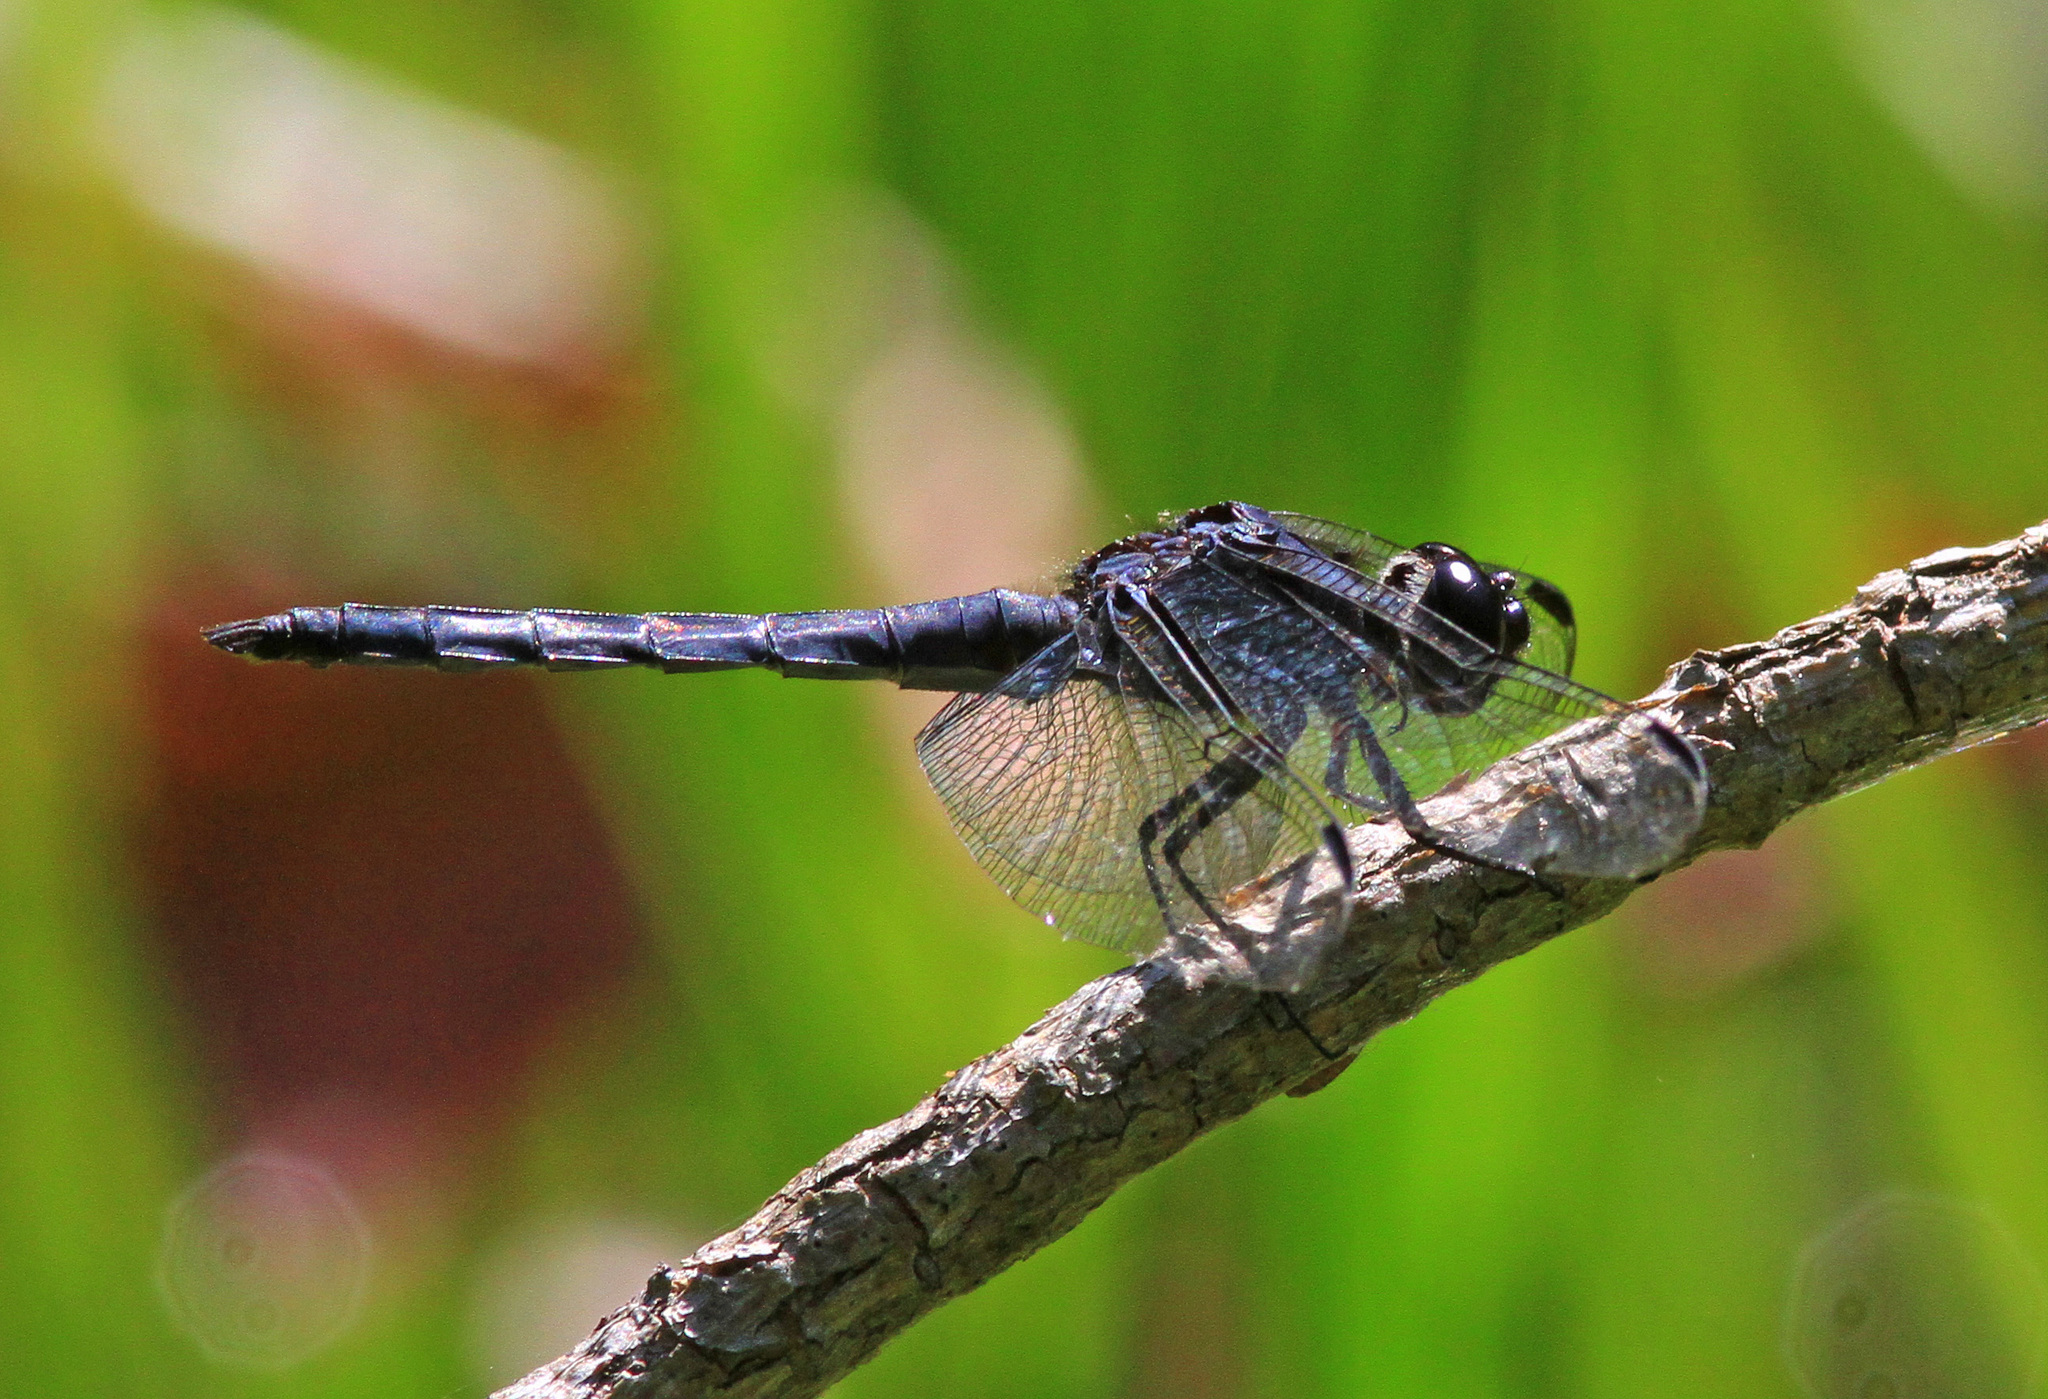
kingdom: Animalia
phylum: Arthropoda
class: Insecta
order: Odonata
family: Libellulidae
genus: Libellula
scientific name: Libellula incesta
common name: Slaty skimmer
